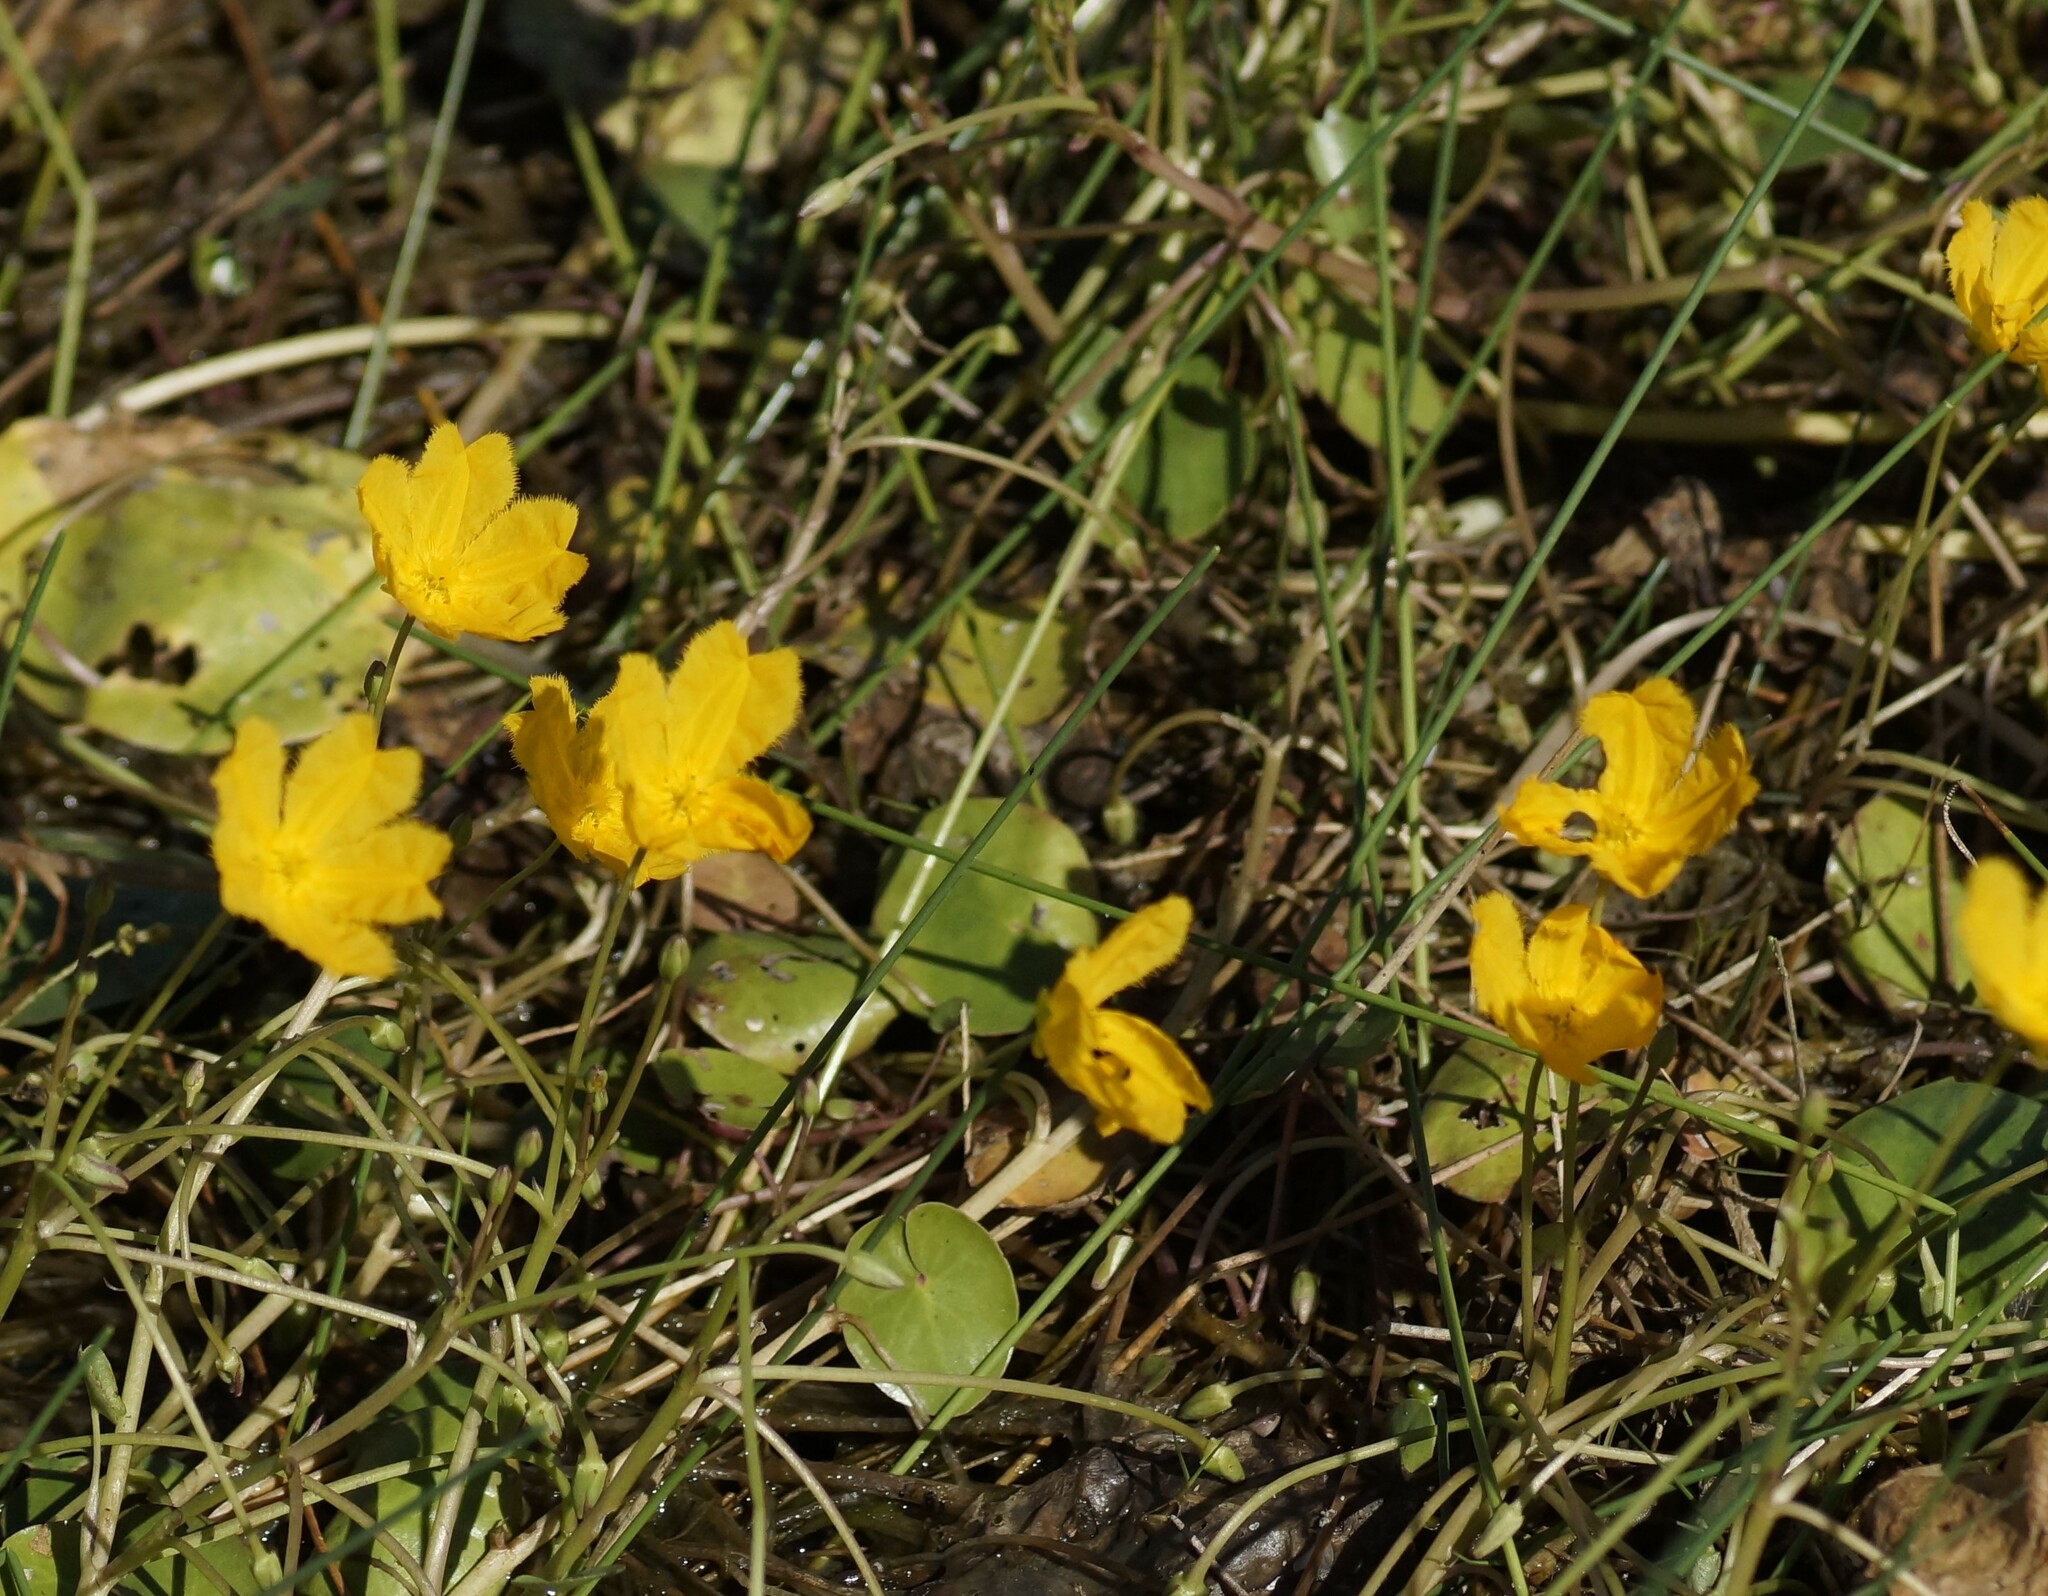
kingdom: Plantae
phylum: Tracheophyta
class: Magnoliopsida
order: Asterales
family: Menyanthaceae
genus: Nymphoides
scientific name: Nymphoides aurantiaca
